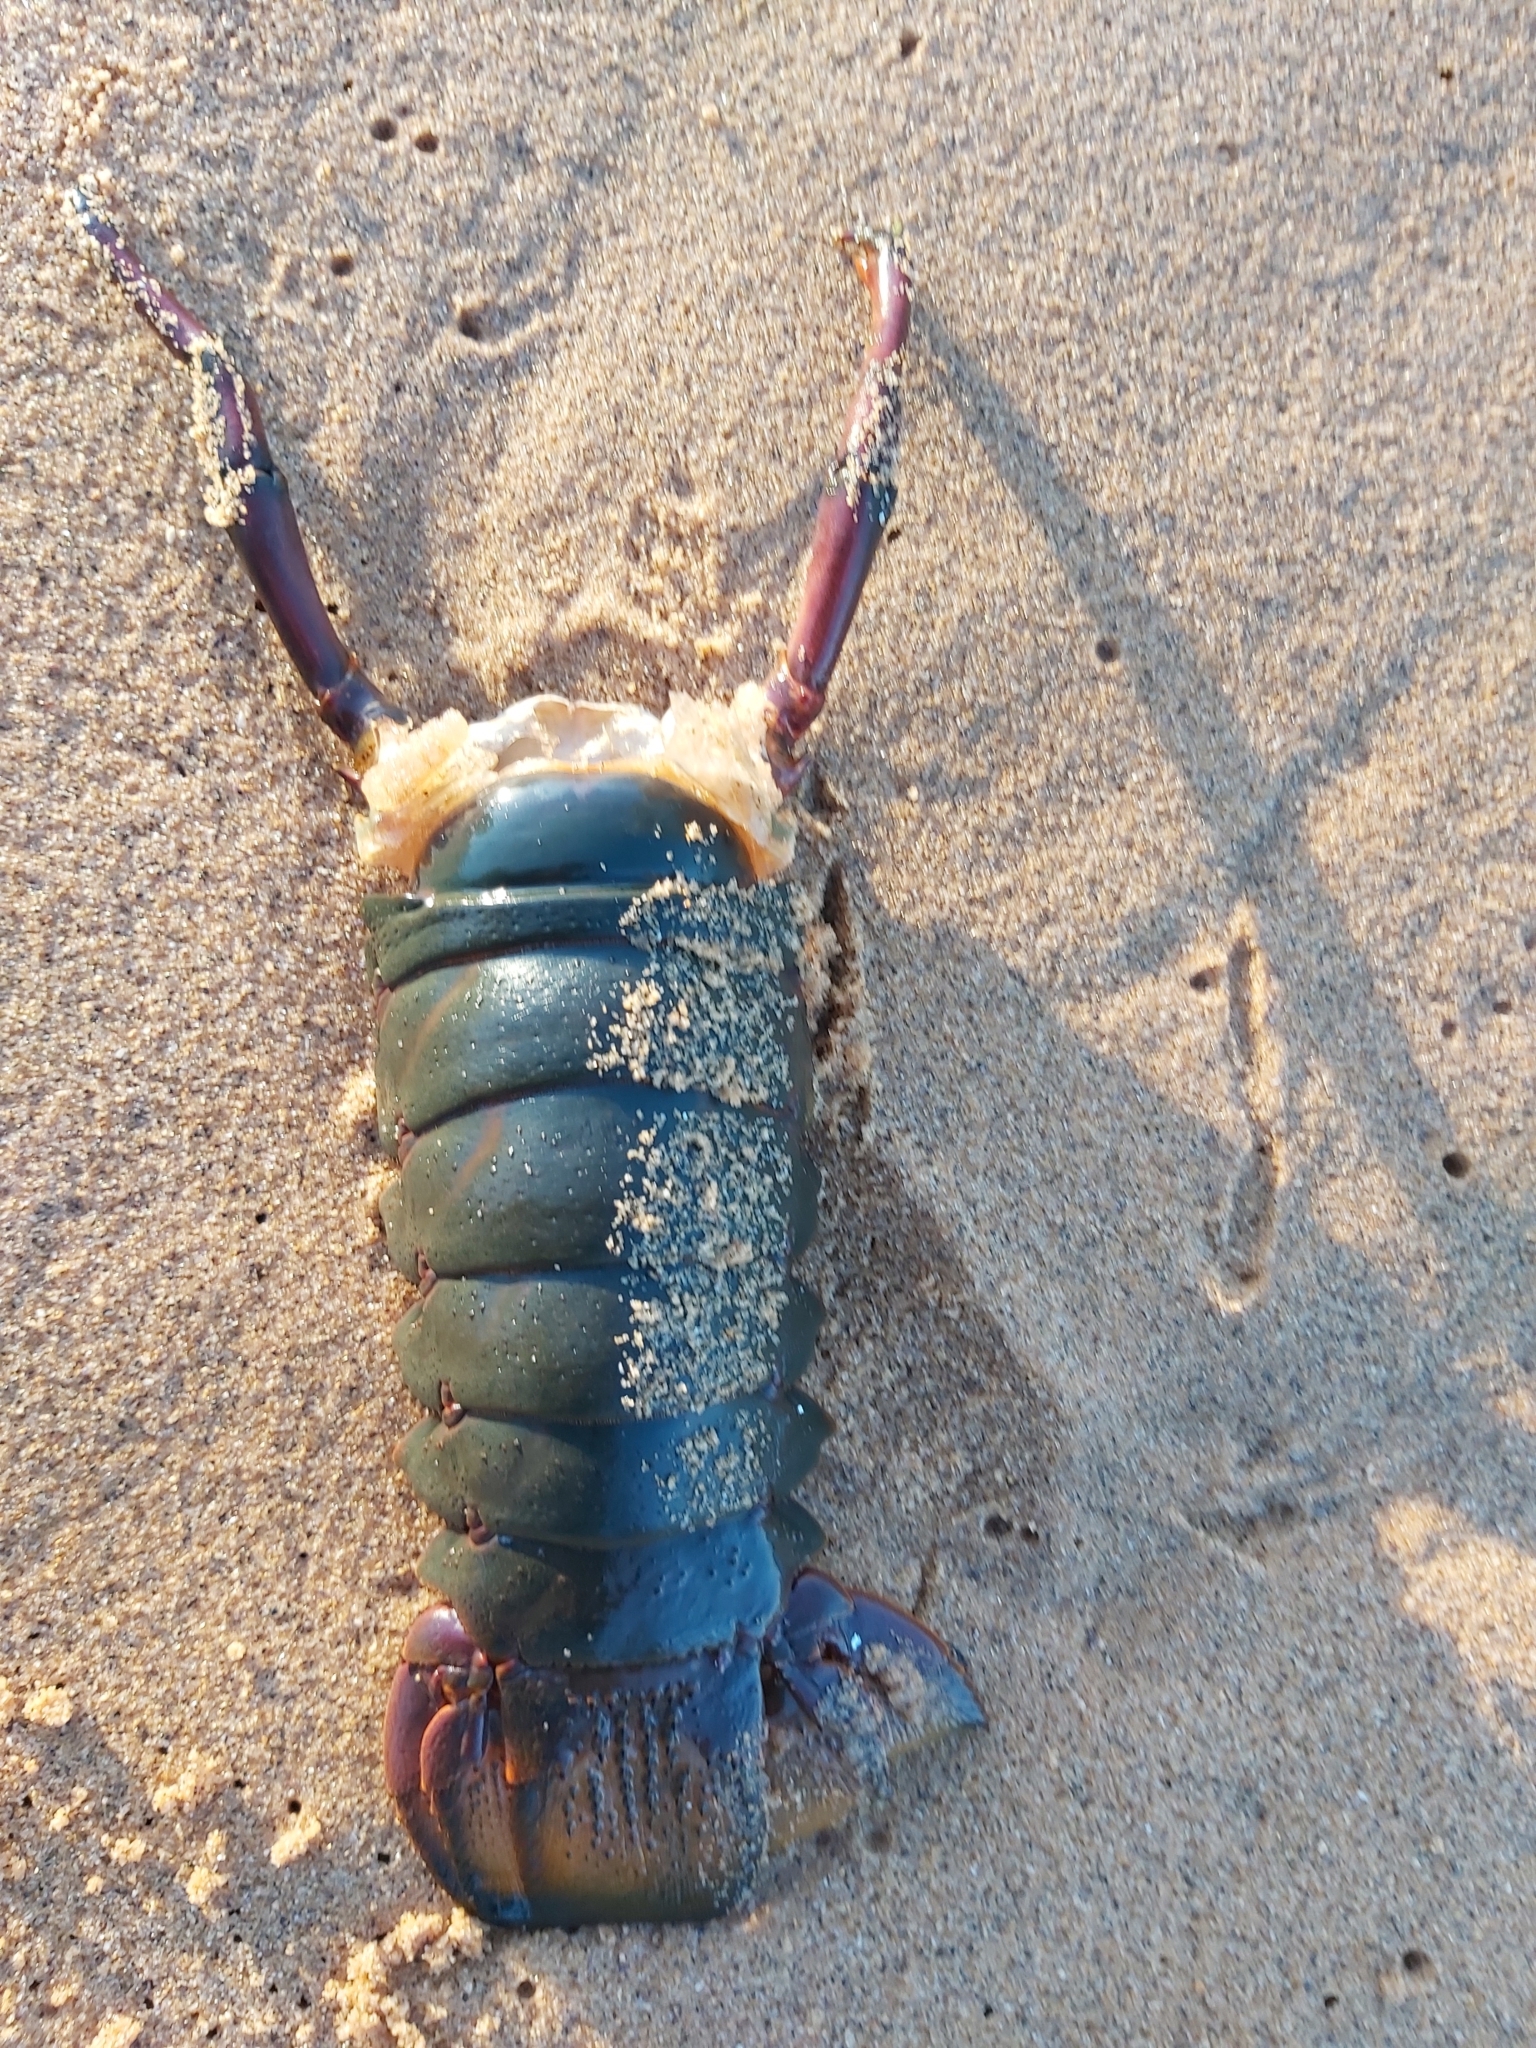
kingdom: Animalia
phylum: Arthropoda
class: Malacostraca
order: Decapoda
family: Palinuridae
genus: Sagmariasus
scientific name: Sagmariasus verreauxi
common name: Green rock lobster
